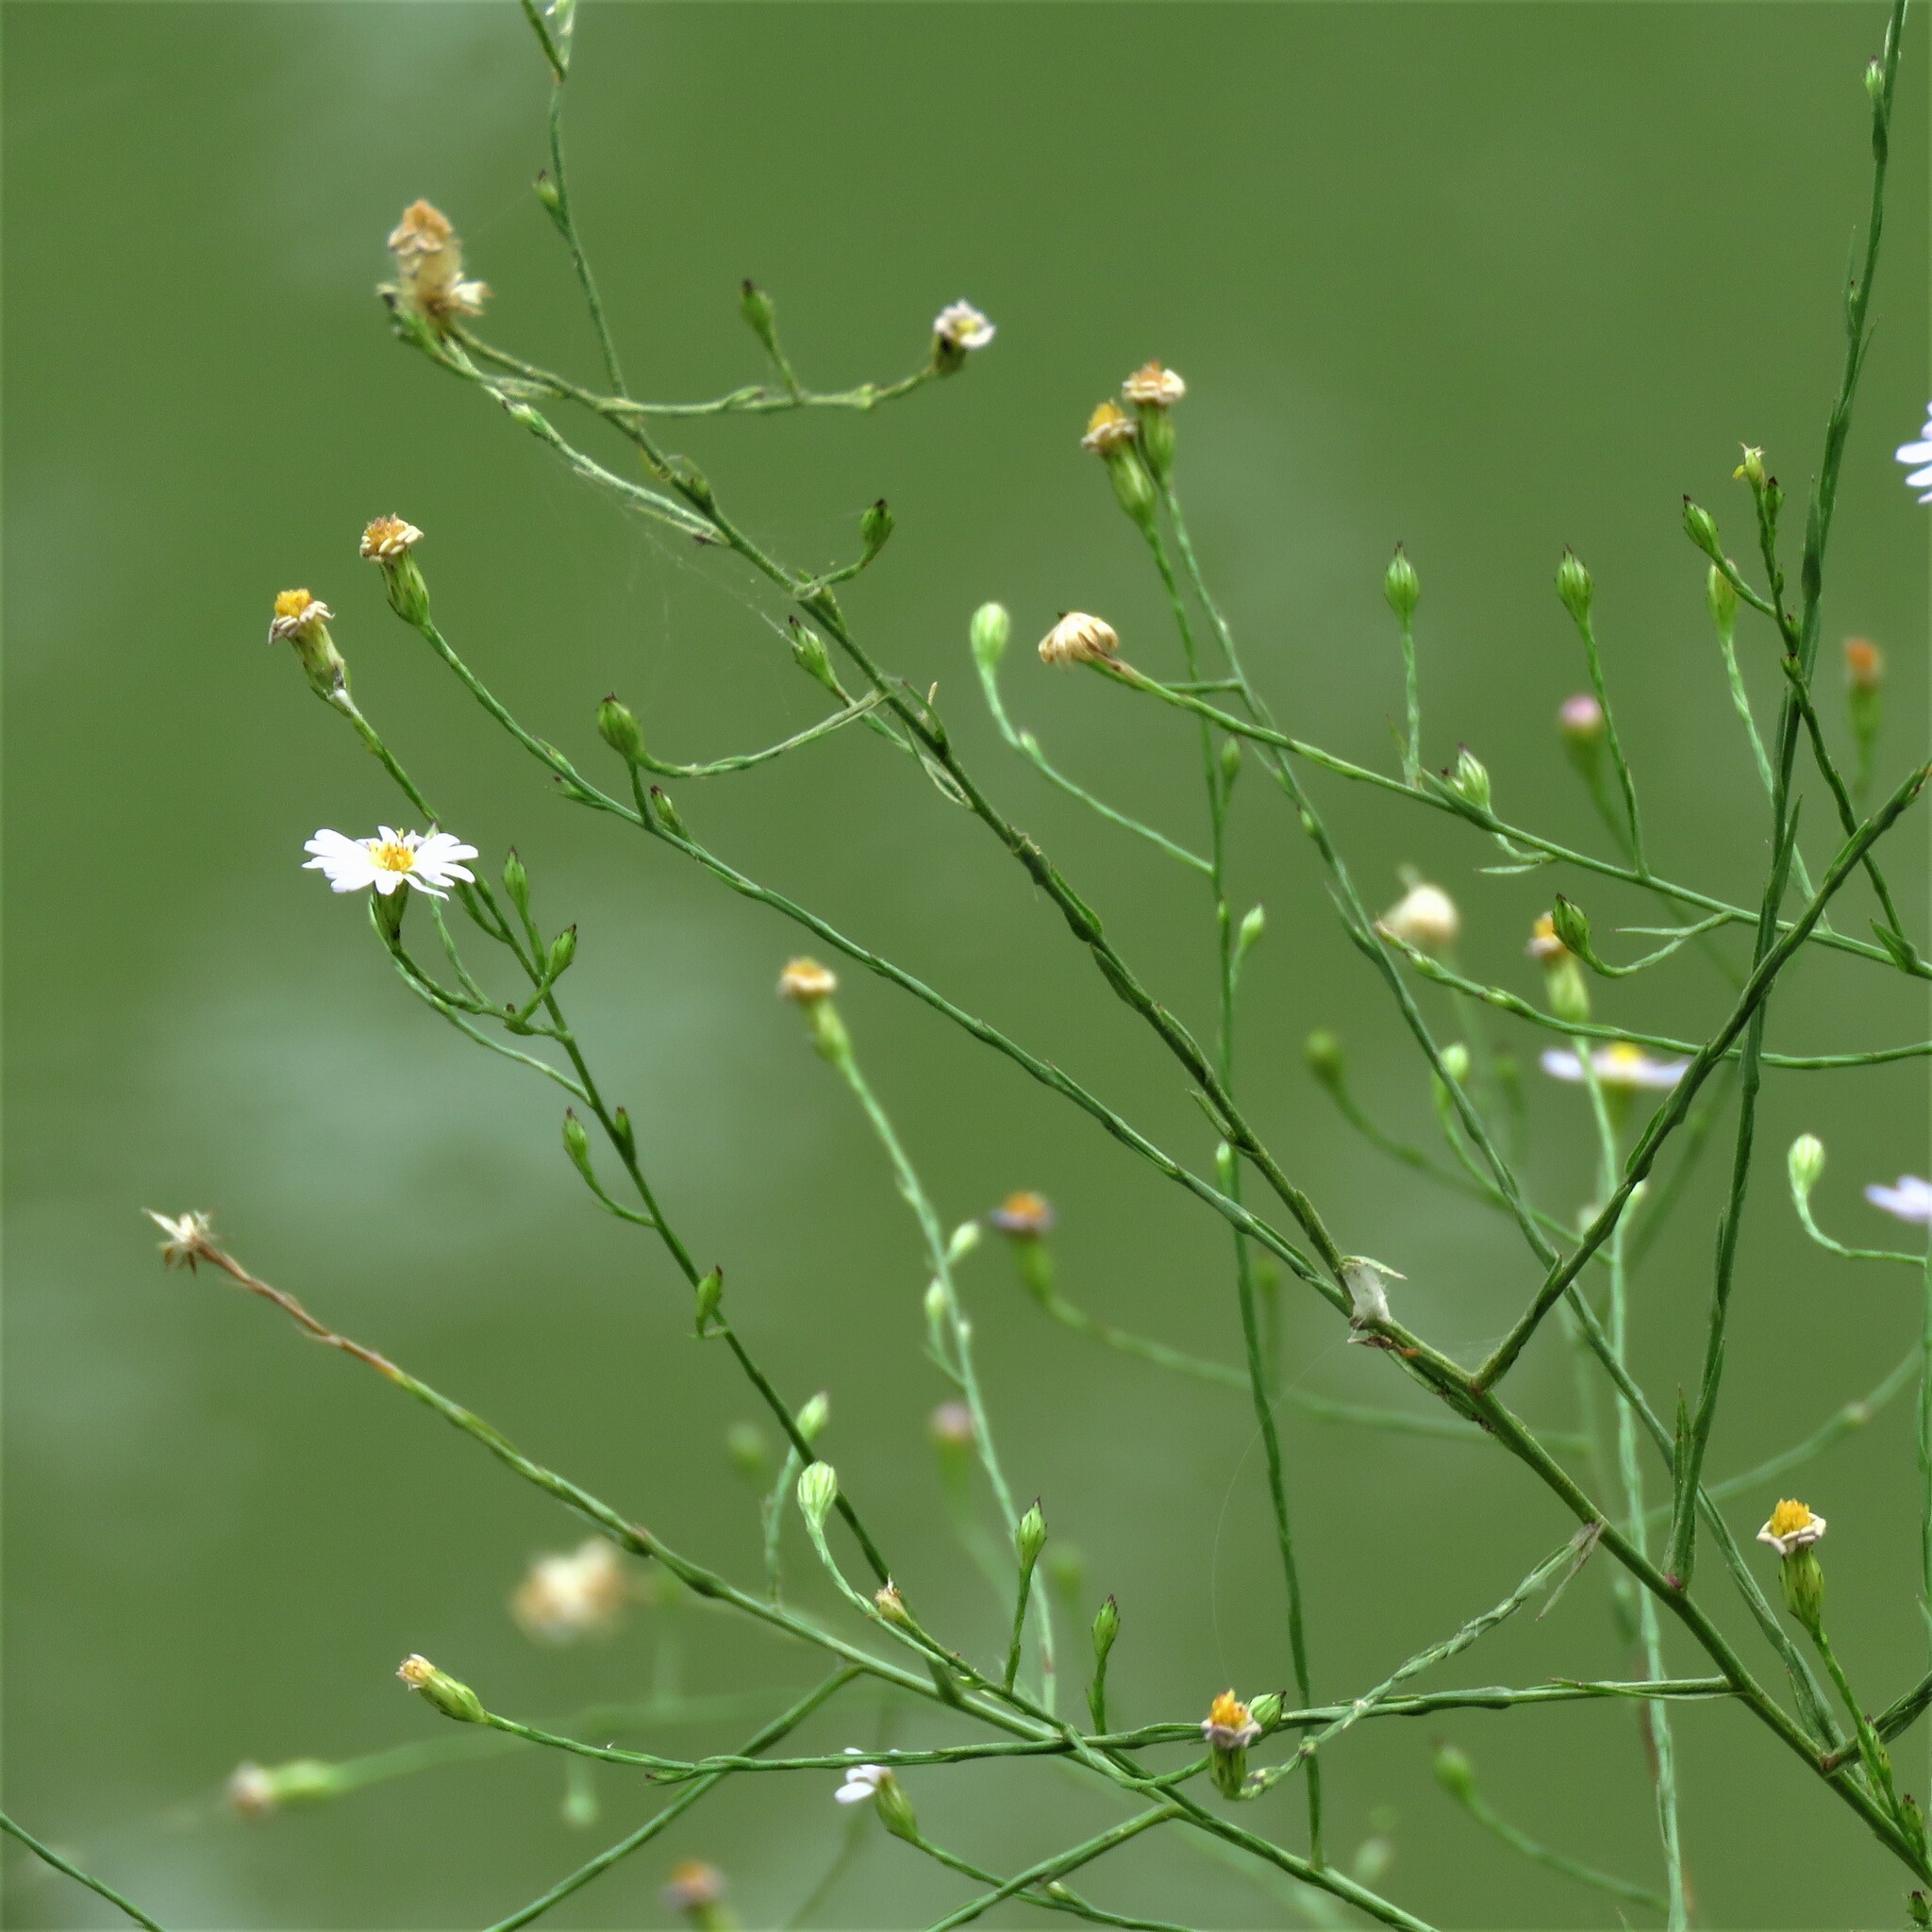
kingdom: Plantae
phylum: Tracheophyta
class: Magnoliopsida
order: Asterales
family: Asteraceae
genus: Symphyotrichum
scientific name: Symphyotrichum divaricatum
